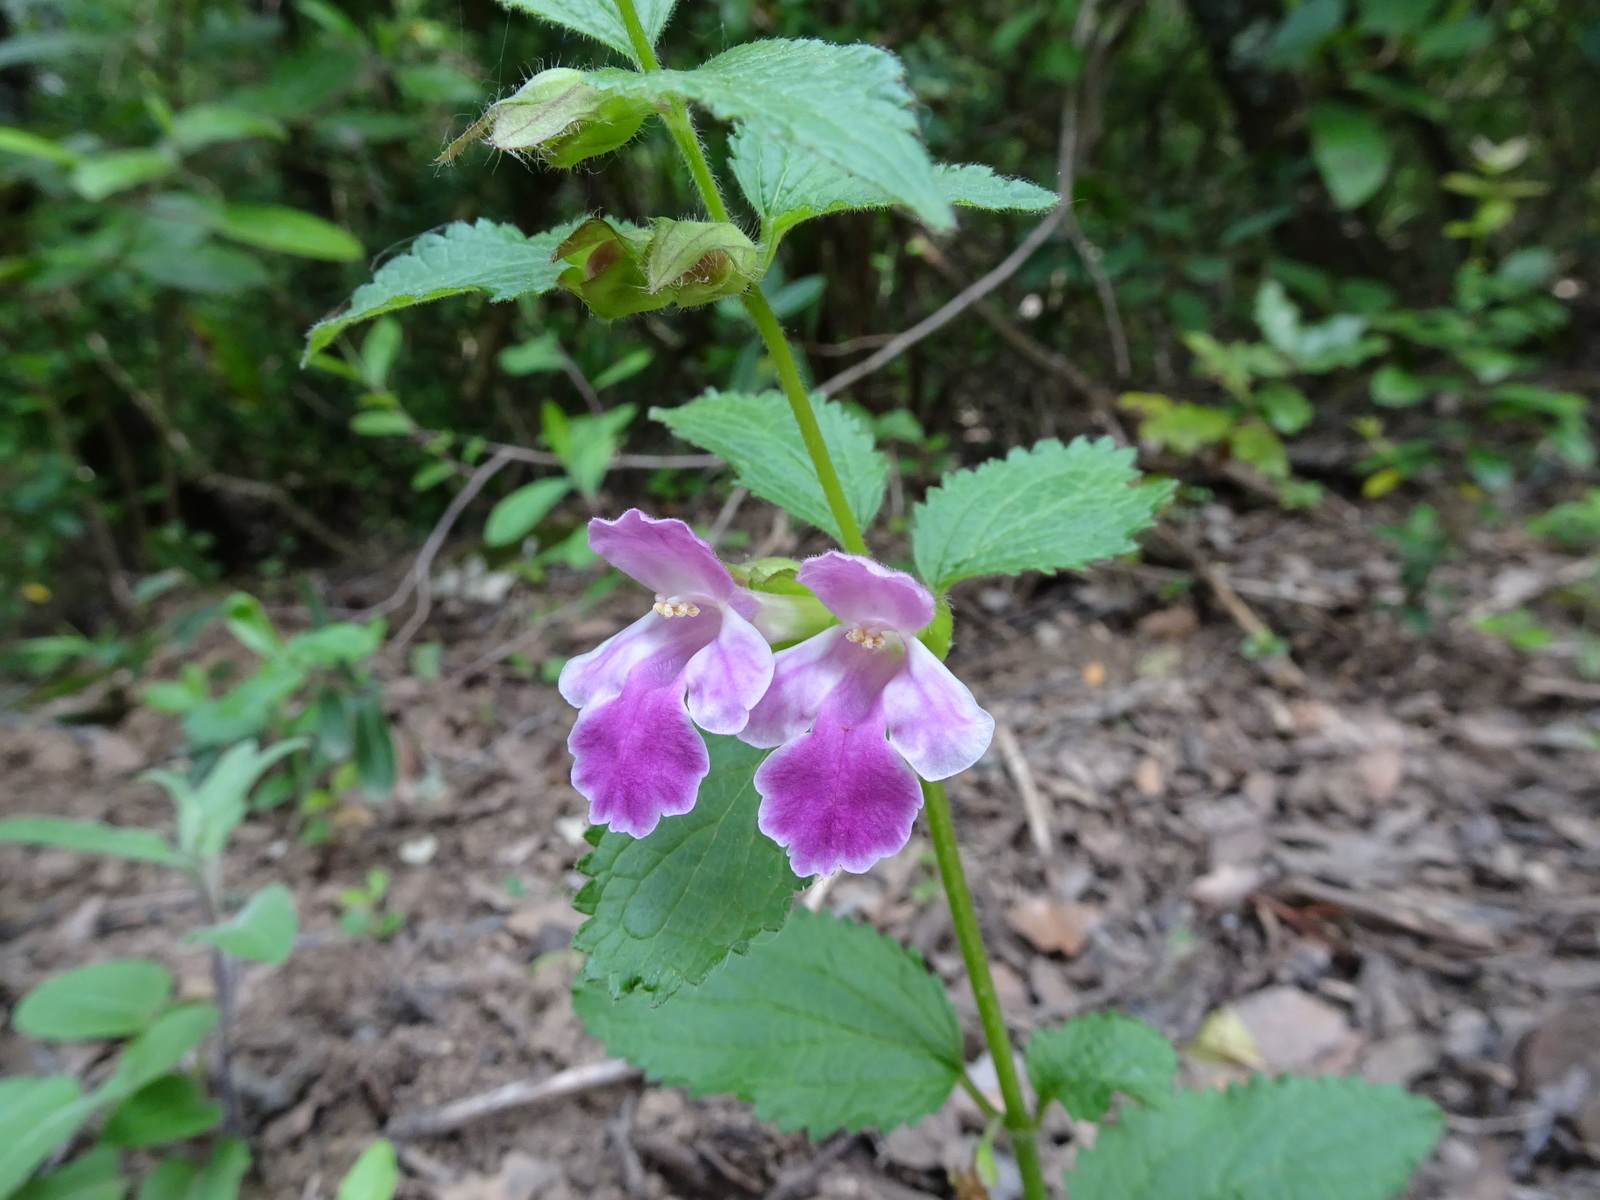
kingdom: Plantae
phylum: Tracheophyta
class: Magnoliopsida
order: Lamiales
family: Lamiaceae
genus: Melittis
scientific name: Melittis melissophyllum
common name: Bastard balm
